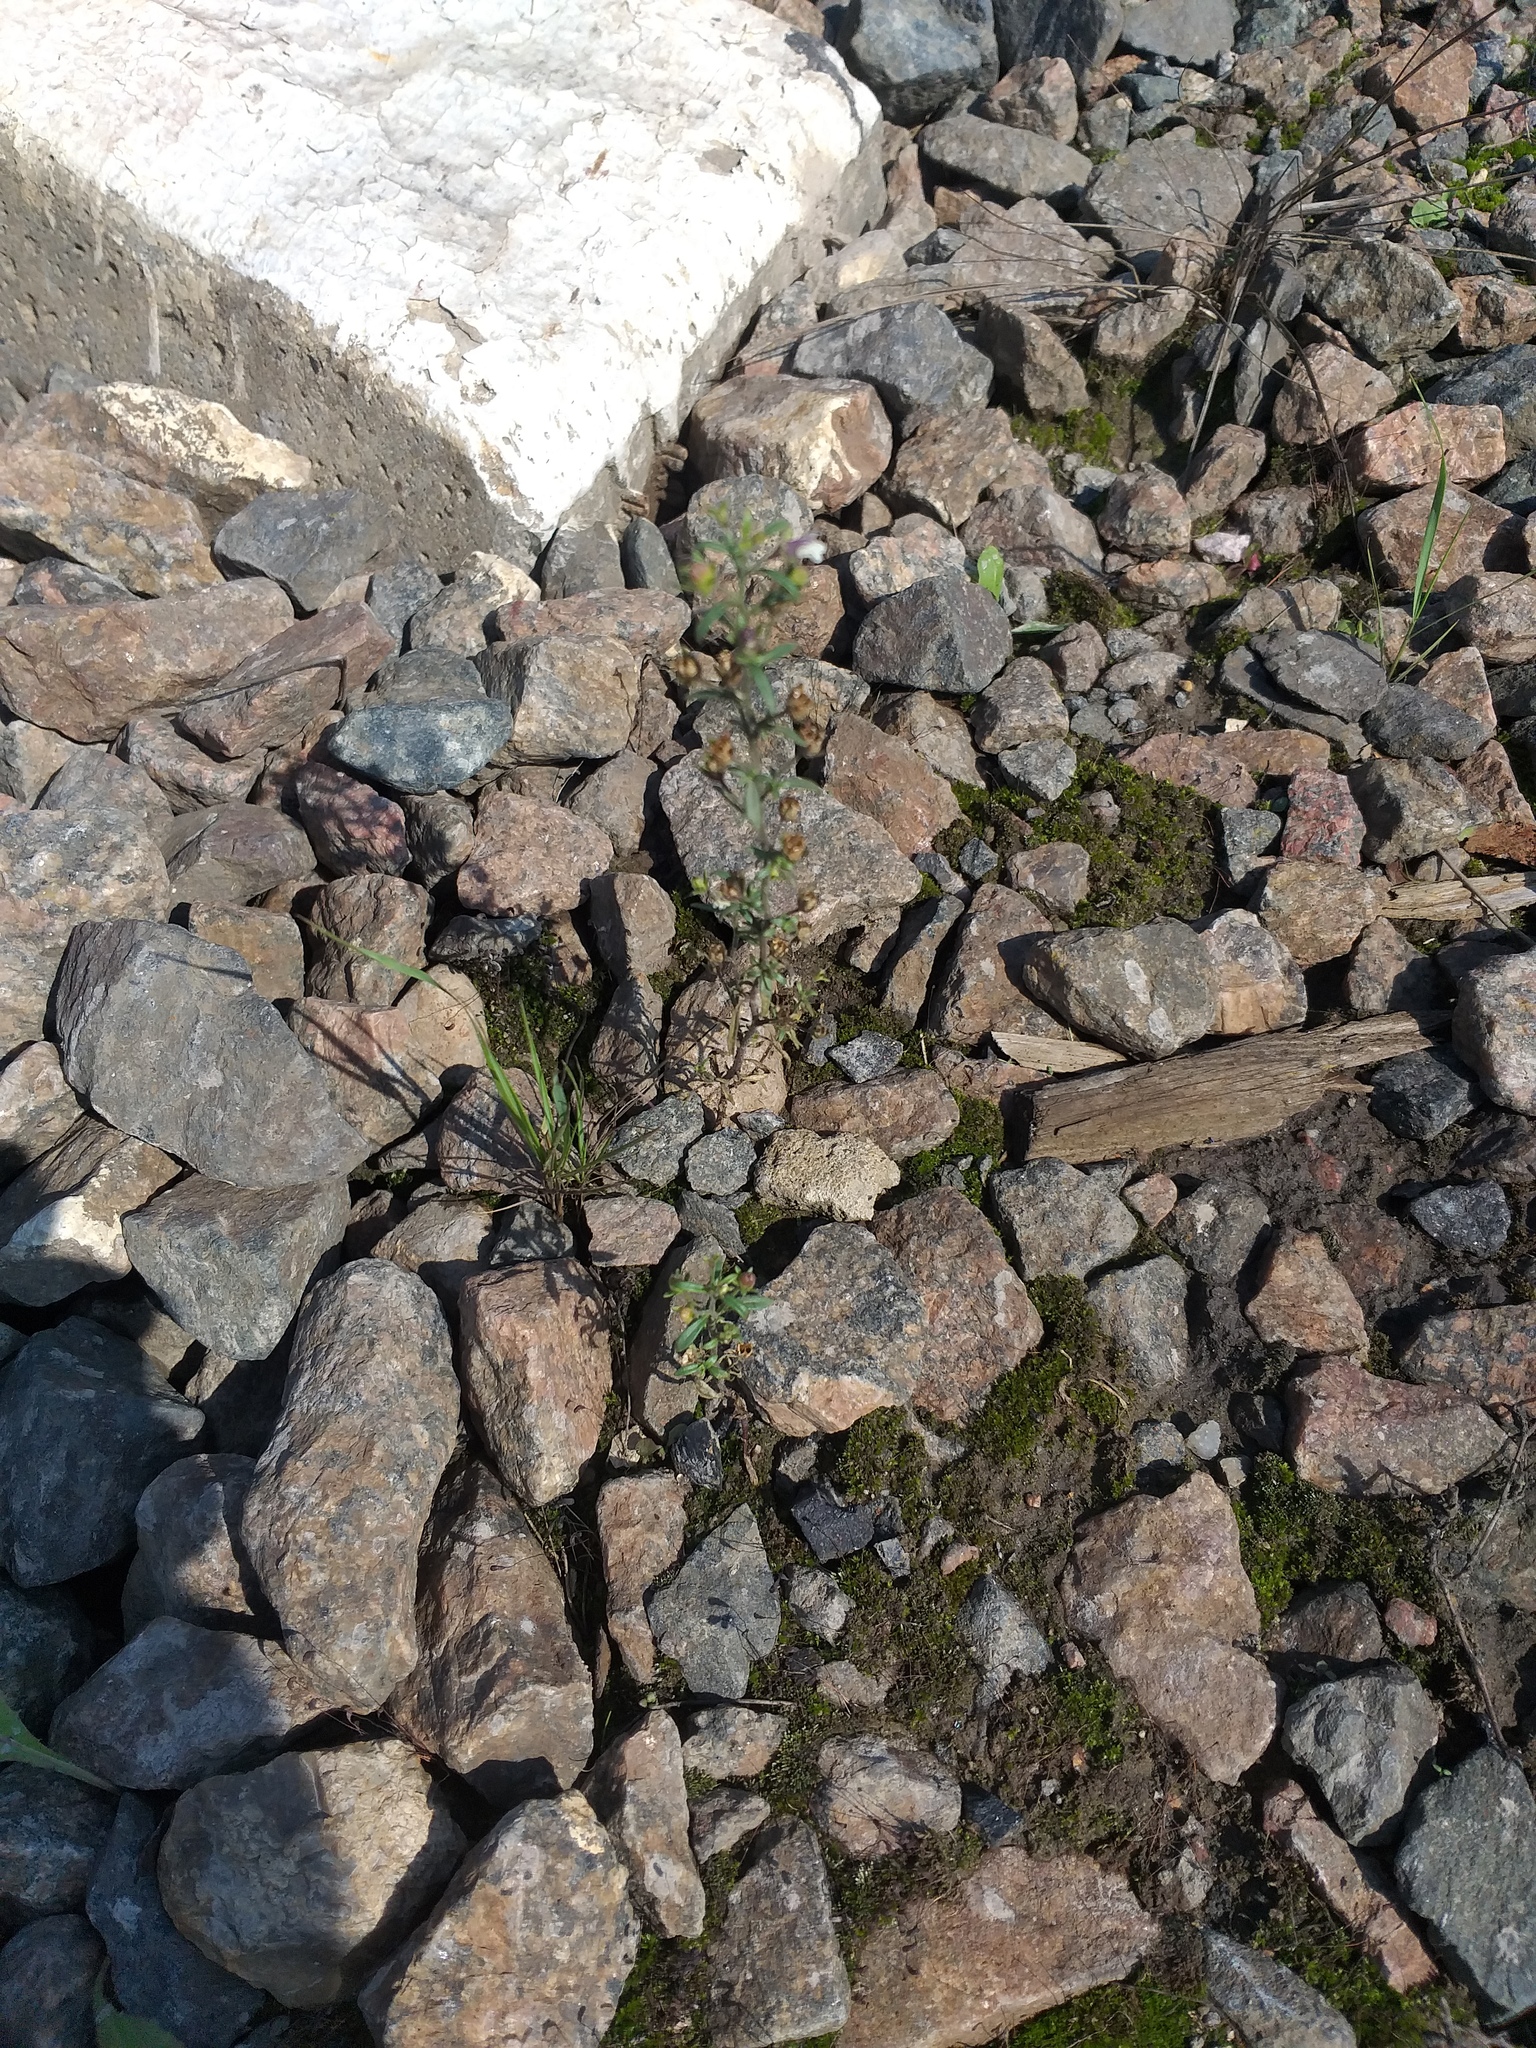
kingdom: Plantae
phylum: Tracheophyta
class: Magnoliopsida
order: Lamiales
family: Plantaginaceae
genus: Chaenorhinum
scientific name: Chaenorhinum minus
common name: Dwarf snapdragon
